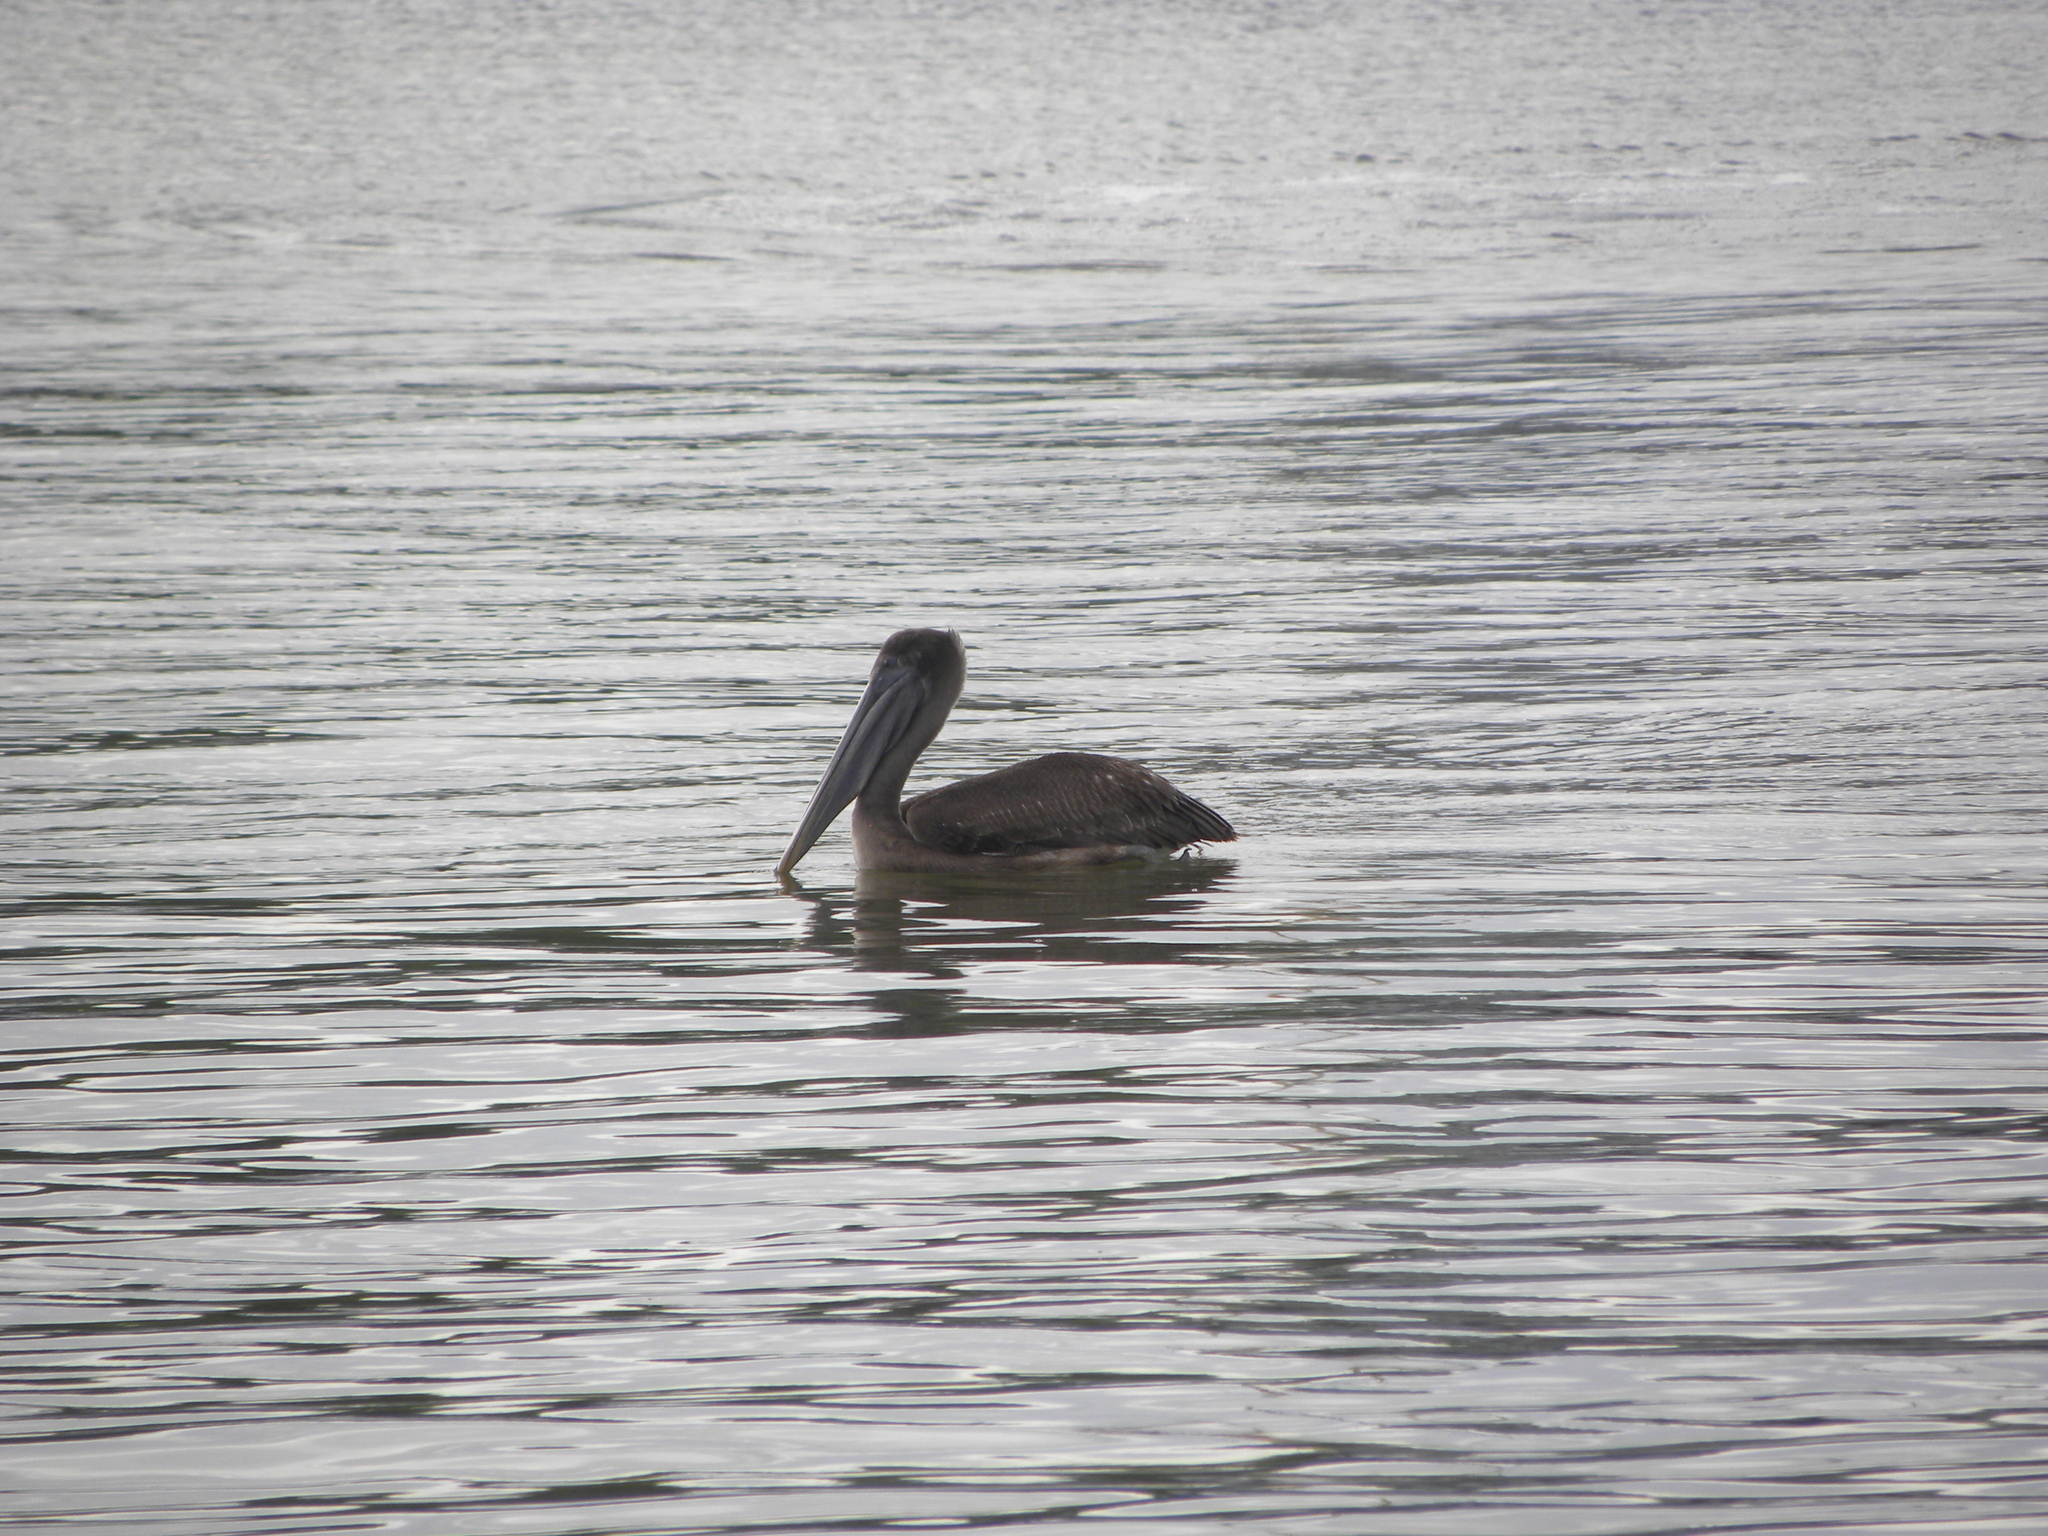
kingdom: Animalia
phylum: Chordata
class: Aves
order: Pelecaniformes
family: Pelecanidae
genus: Pelecanus
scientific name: Pelecanus occidentalis
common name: Brown pelican
